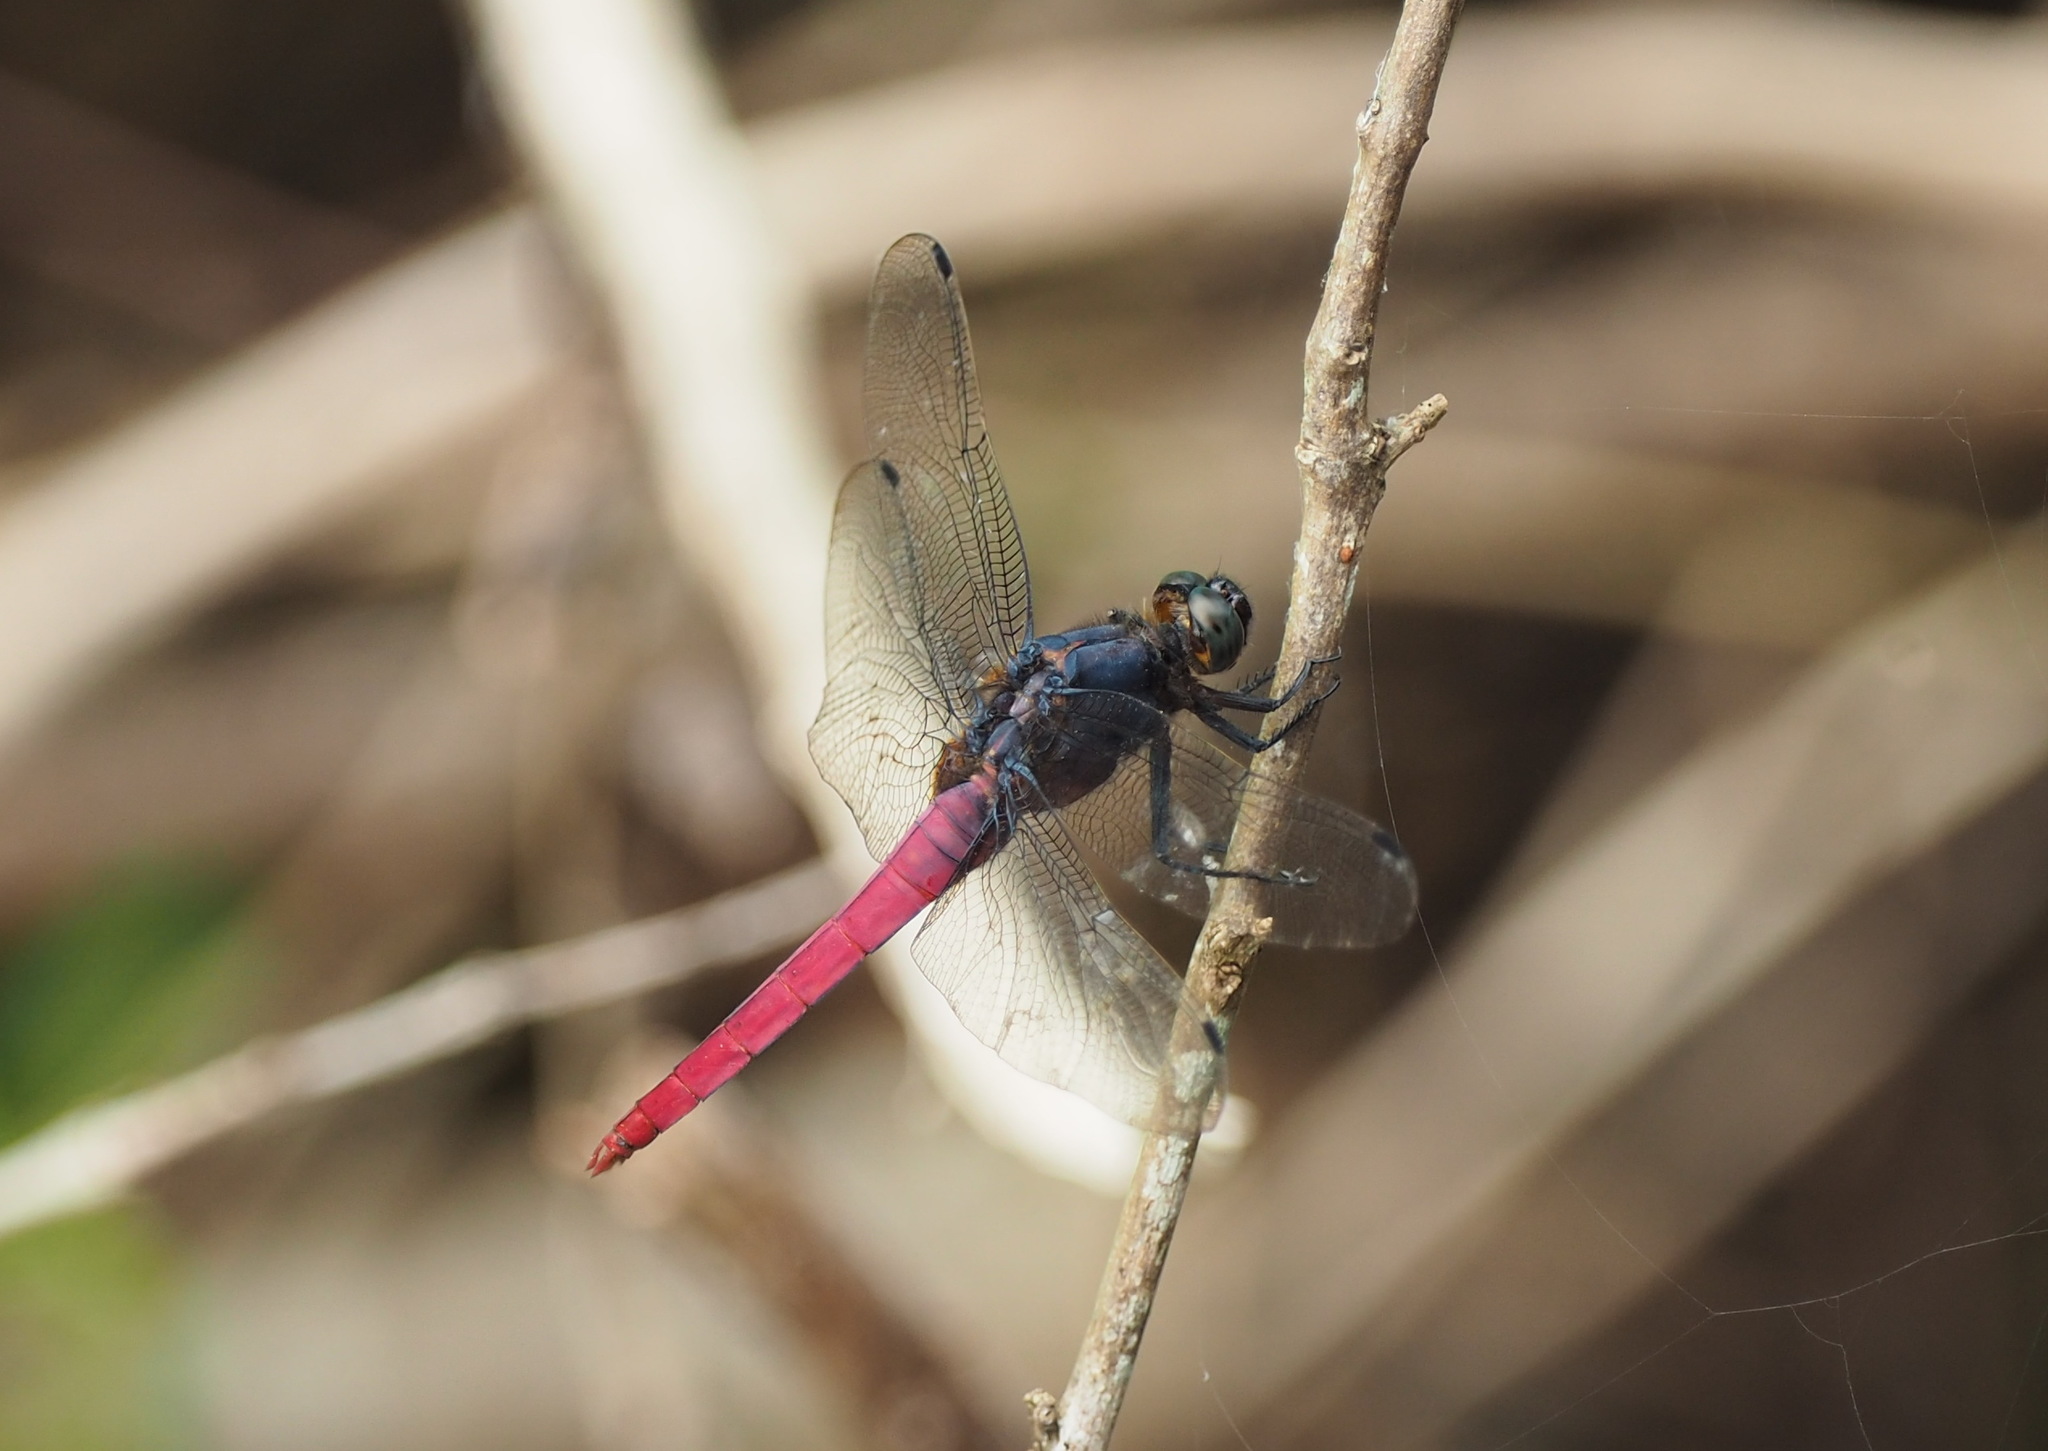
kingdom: Animalia
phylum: Arthropoda
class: Insecta
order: Odonata
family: Libellulidae
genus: Orthetrum
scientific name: Orthetrum pruinosum
